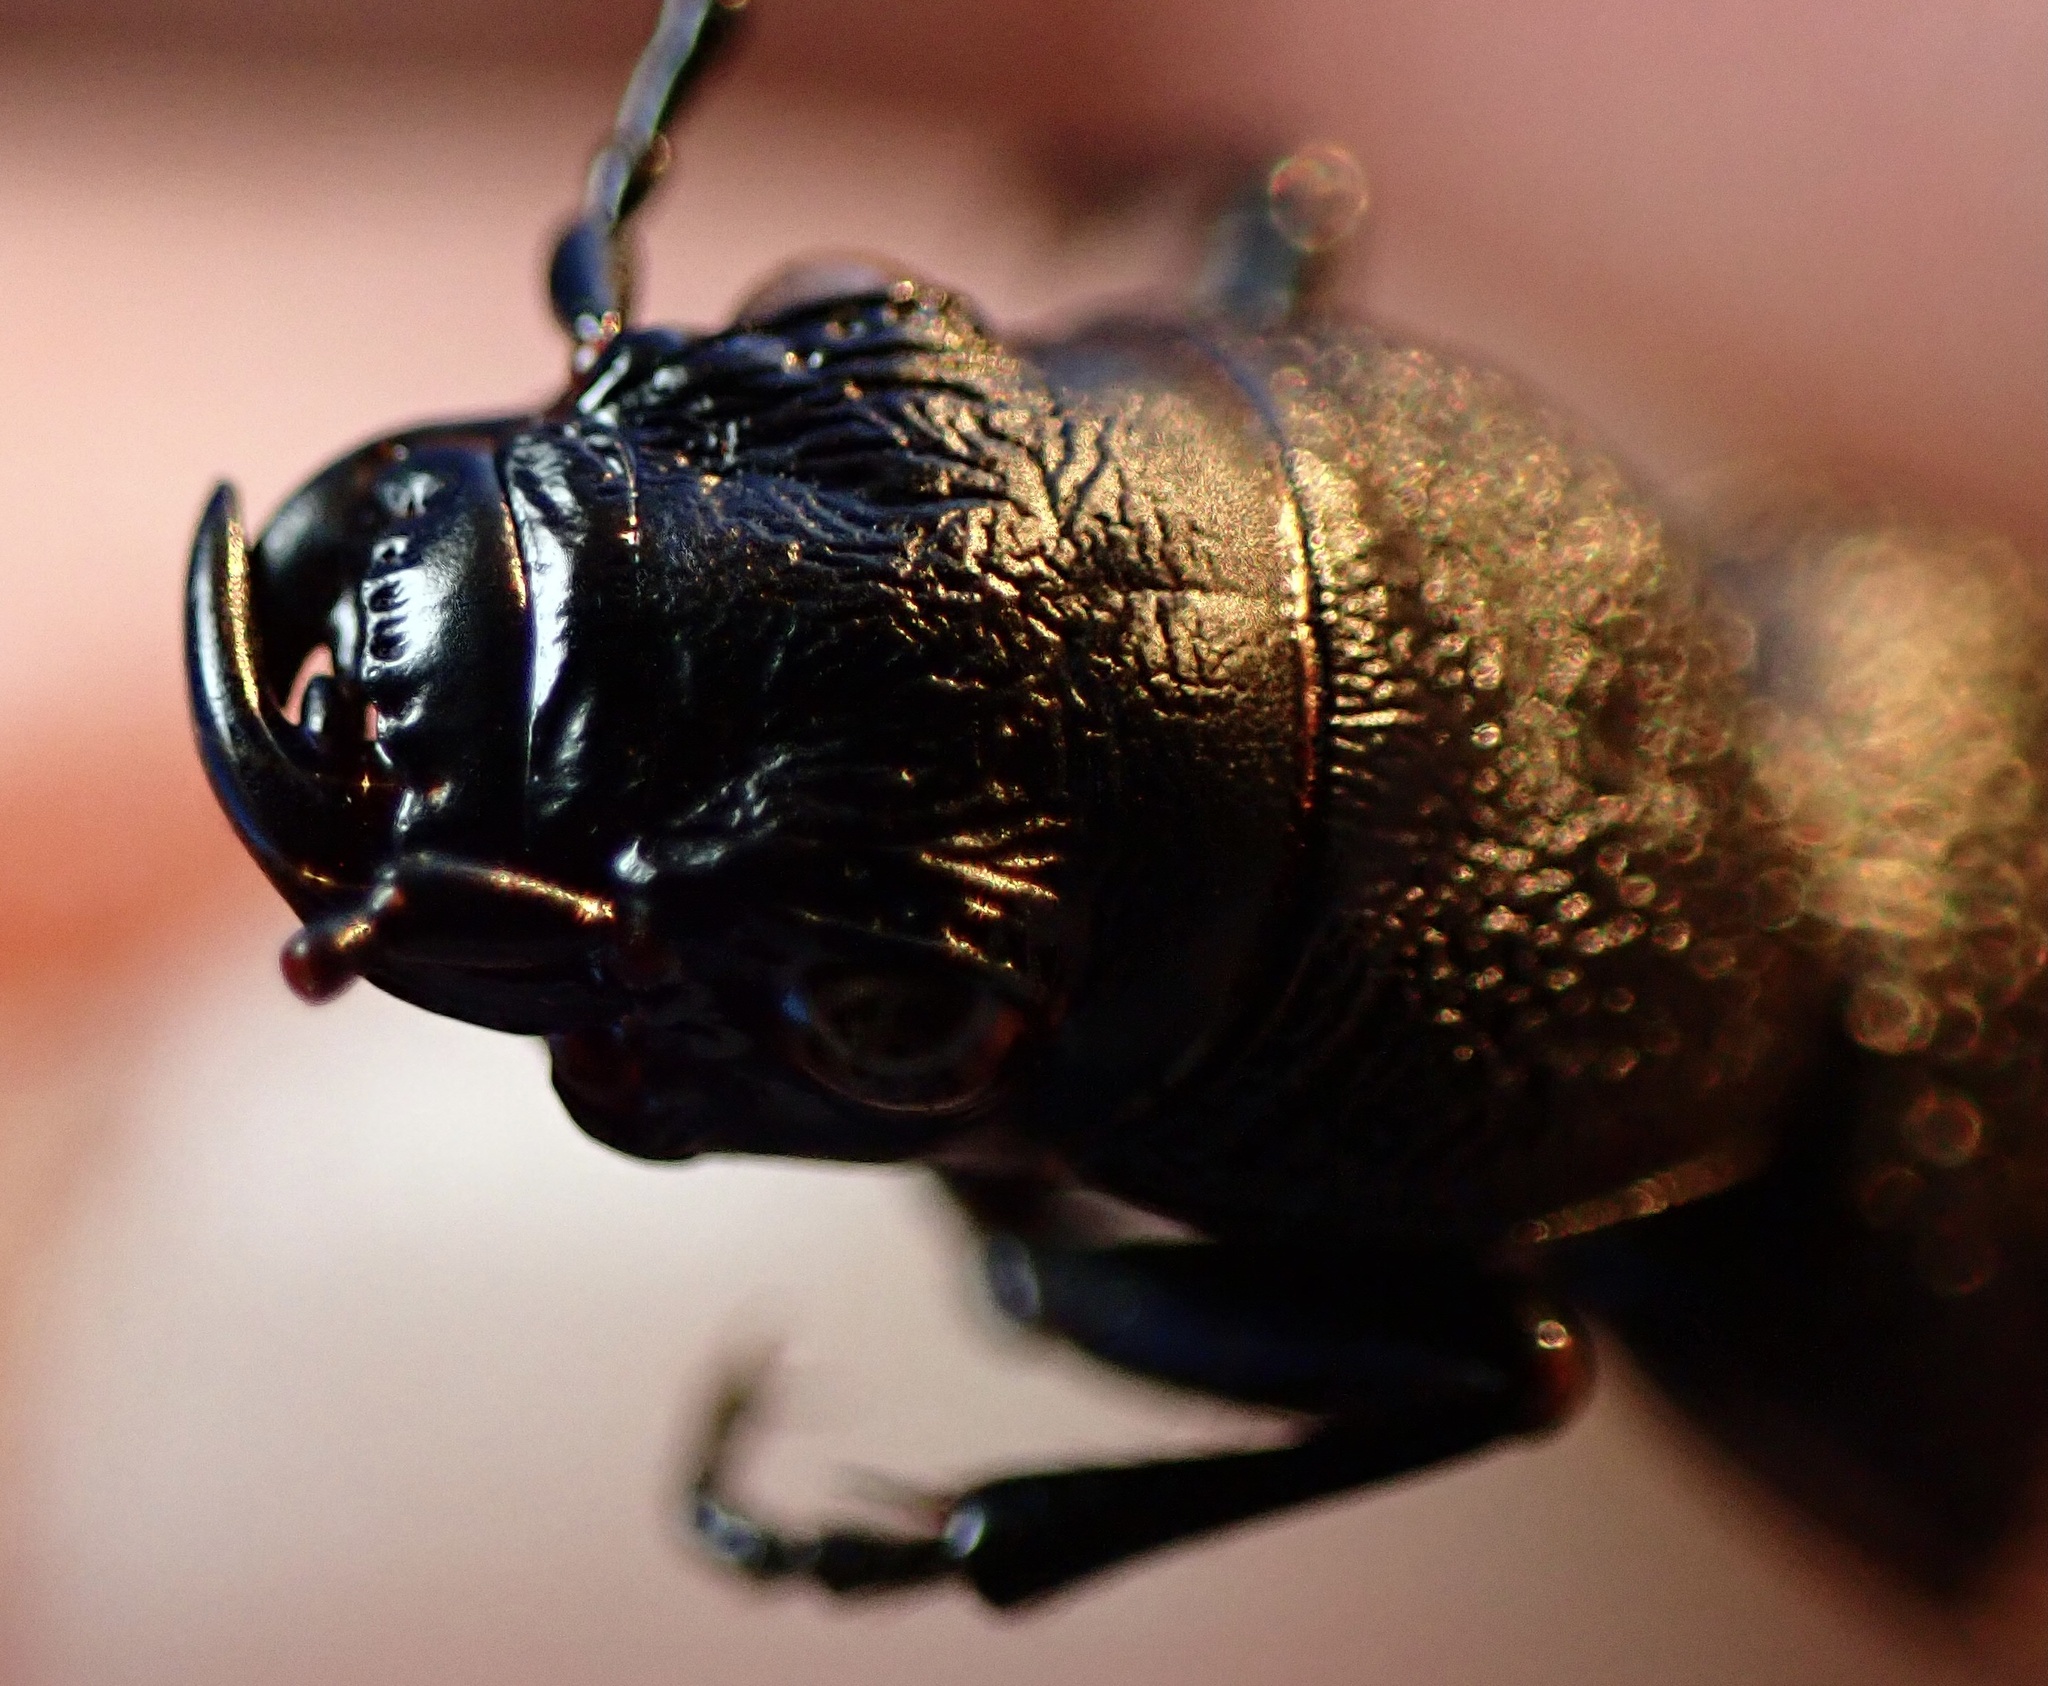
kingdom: Animalia
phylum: Arthropoda
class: Insecta
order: Coleoptera
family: Carabidae
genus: Omus
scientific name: Omus californicus
